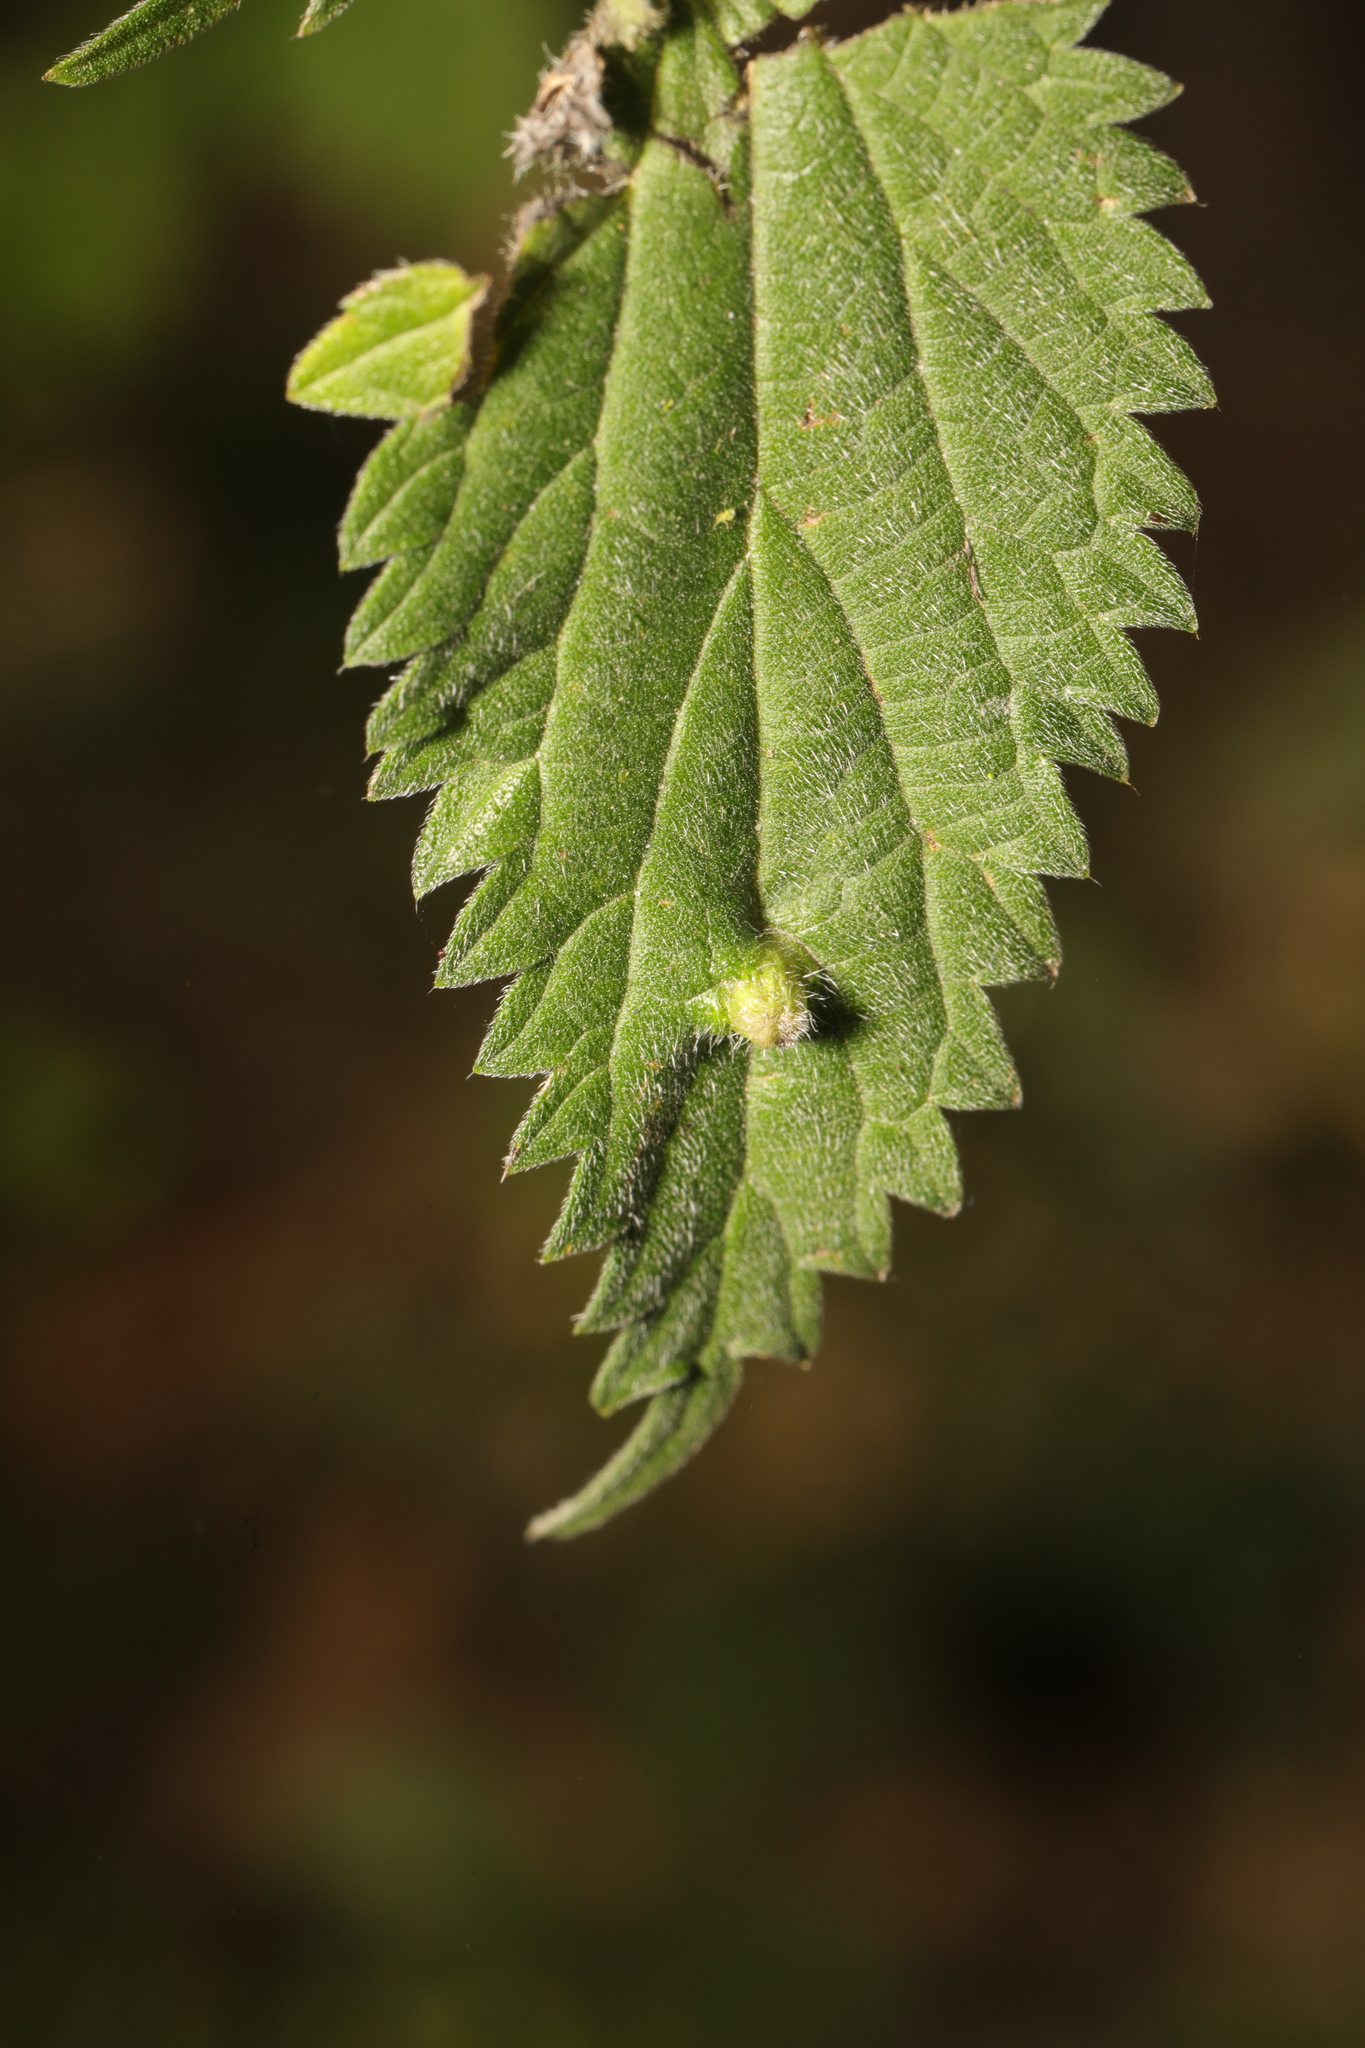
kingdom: Animalia
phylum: Arthropoda
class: Insecta
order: Diptera
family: Cecidomyiidae
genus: Dasineura
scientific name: Dasineura urticae
